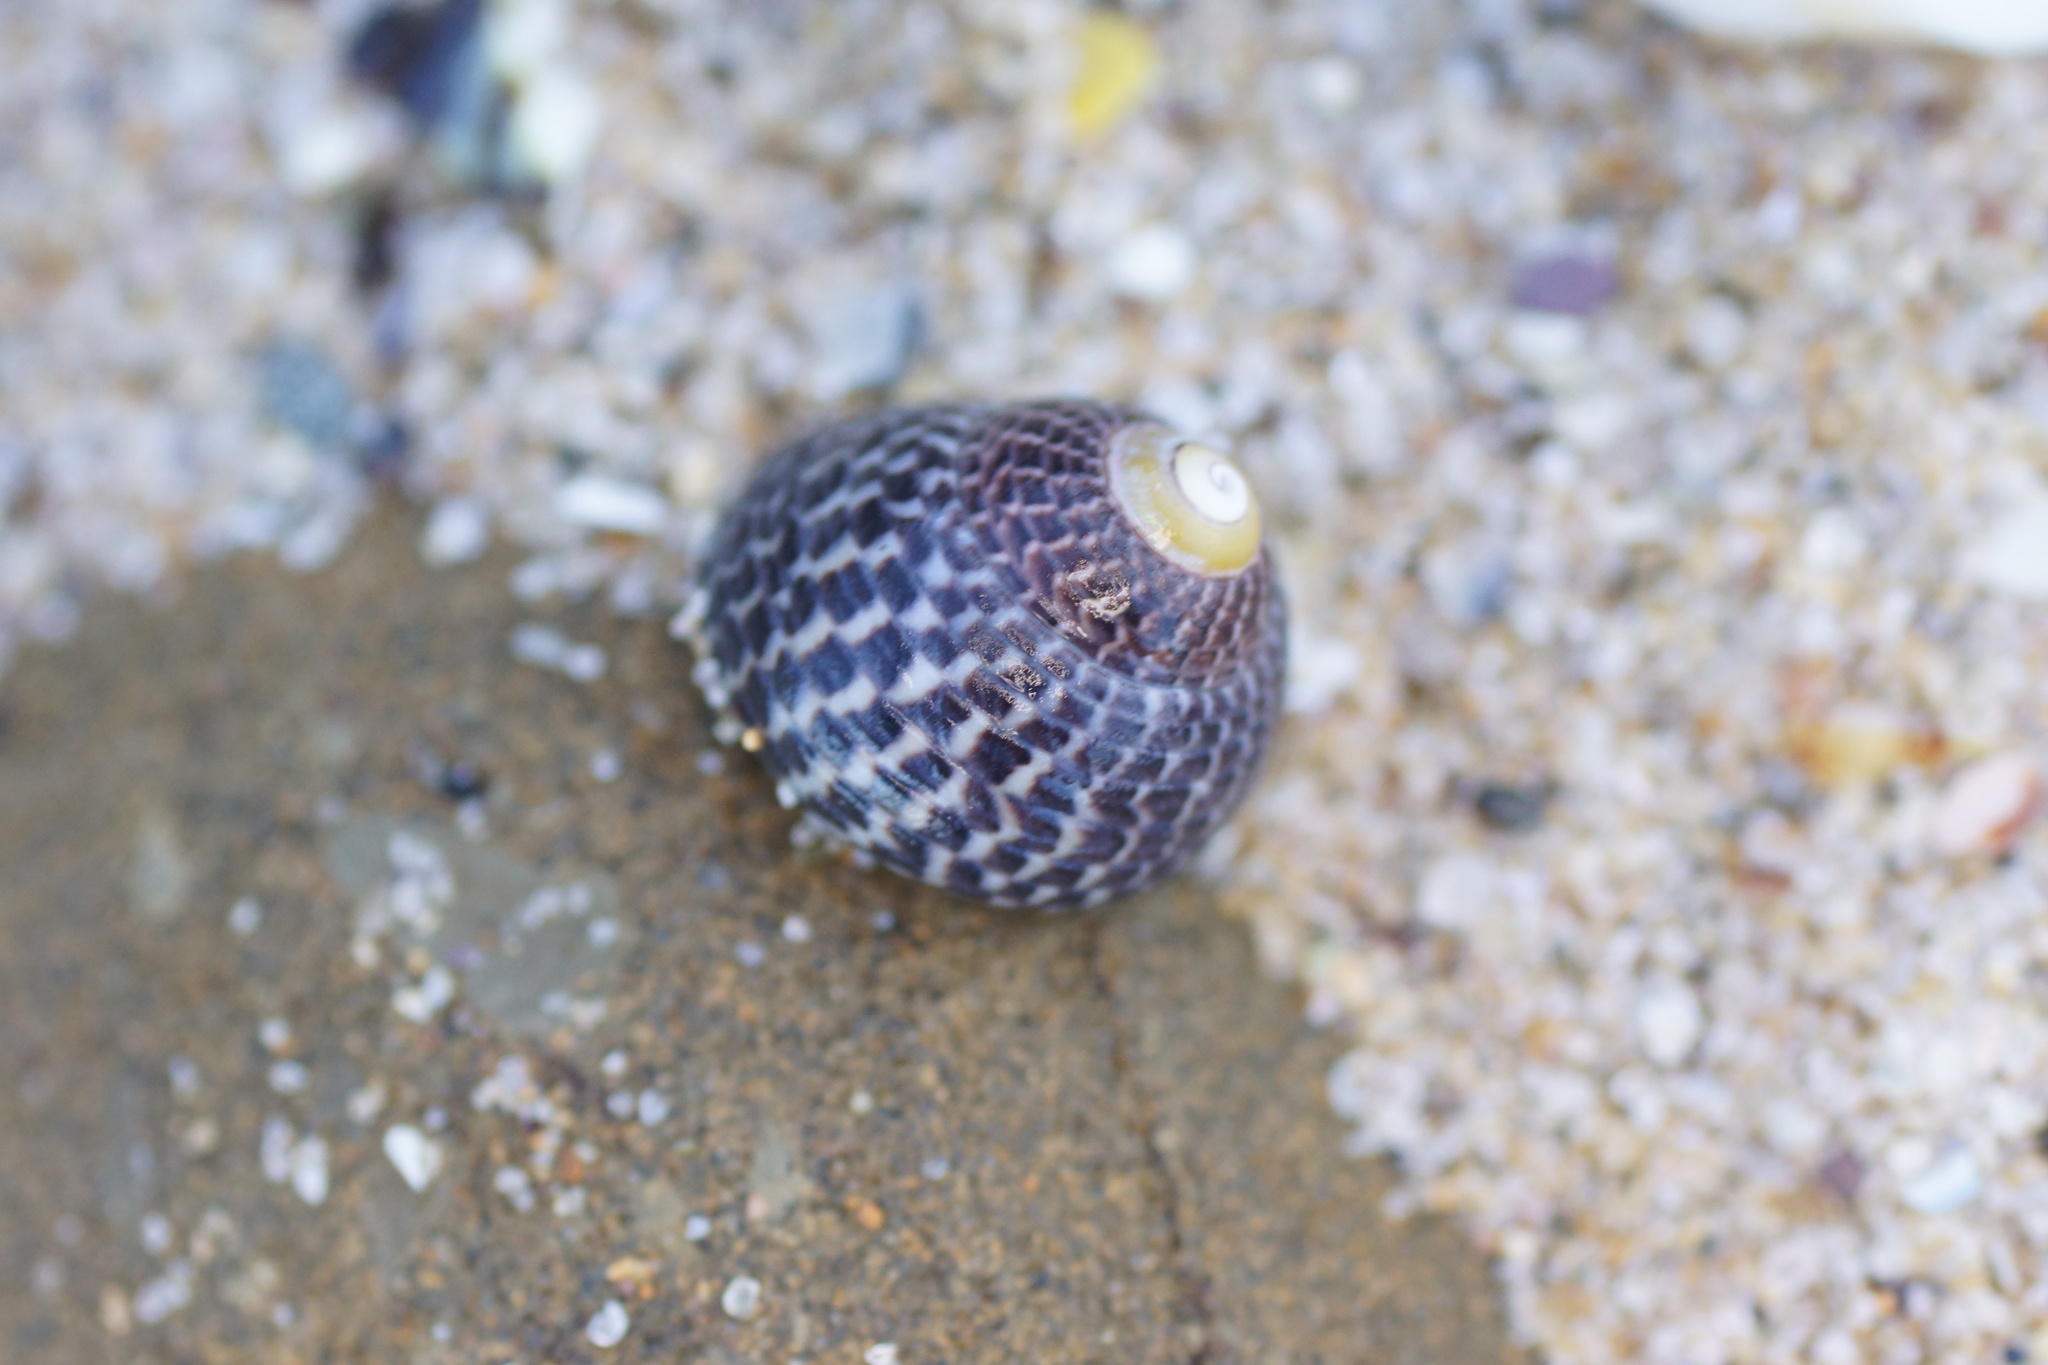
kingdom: Animalia
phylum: Mollusca
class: Gastropoda
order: Trochida
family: Trochidae
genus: Chlorodiloma
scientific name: Chlorodiloma adelaidae
